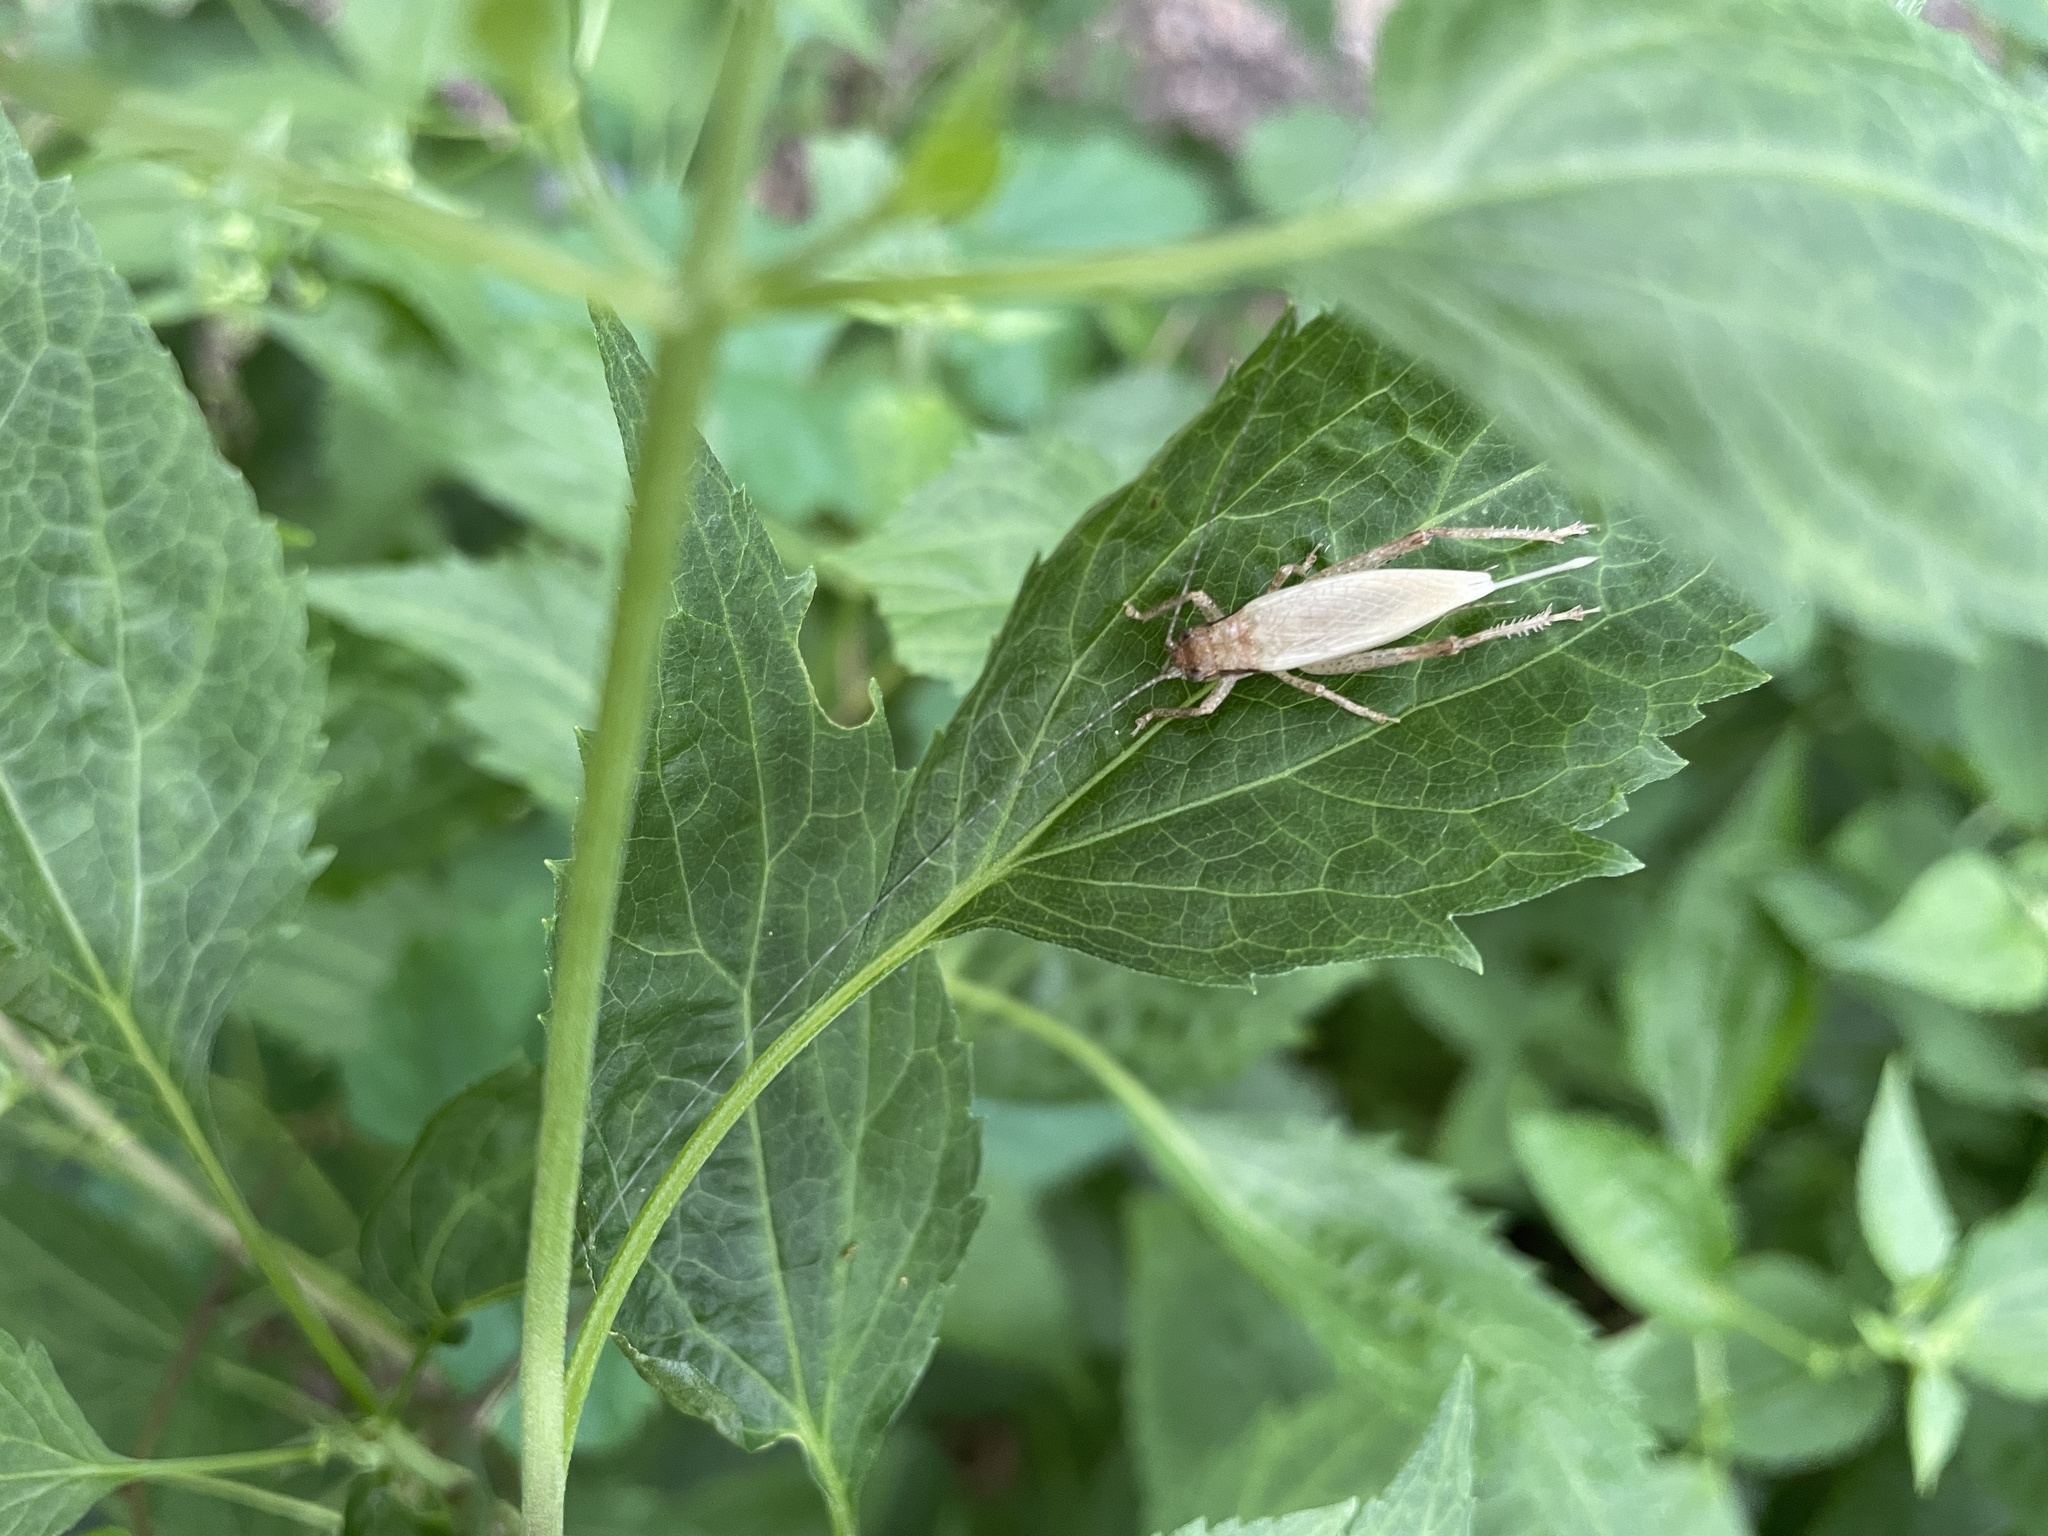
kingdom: Animalia
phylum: Arthropoda
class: Insecta
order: Orthoptera
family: Gryllidae
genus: Hapithus
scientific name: Hapithus saltator
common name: Jumping bush cricket
